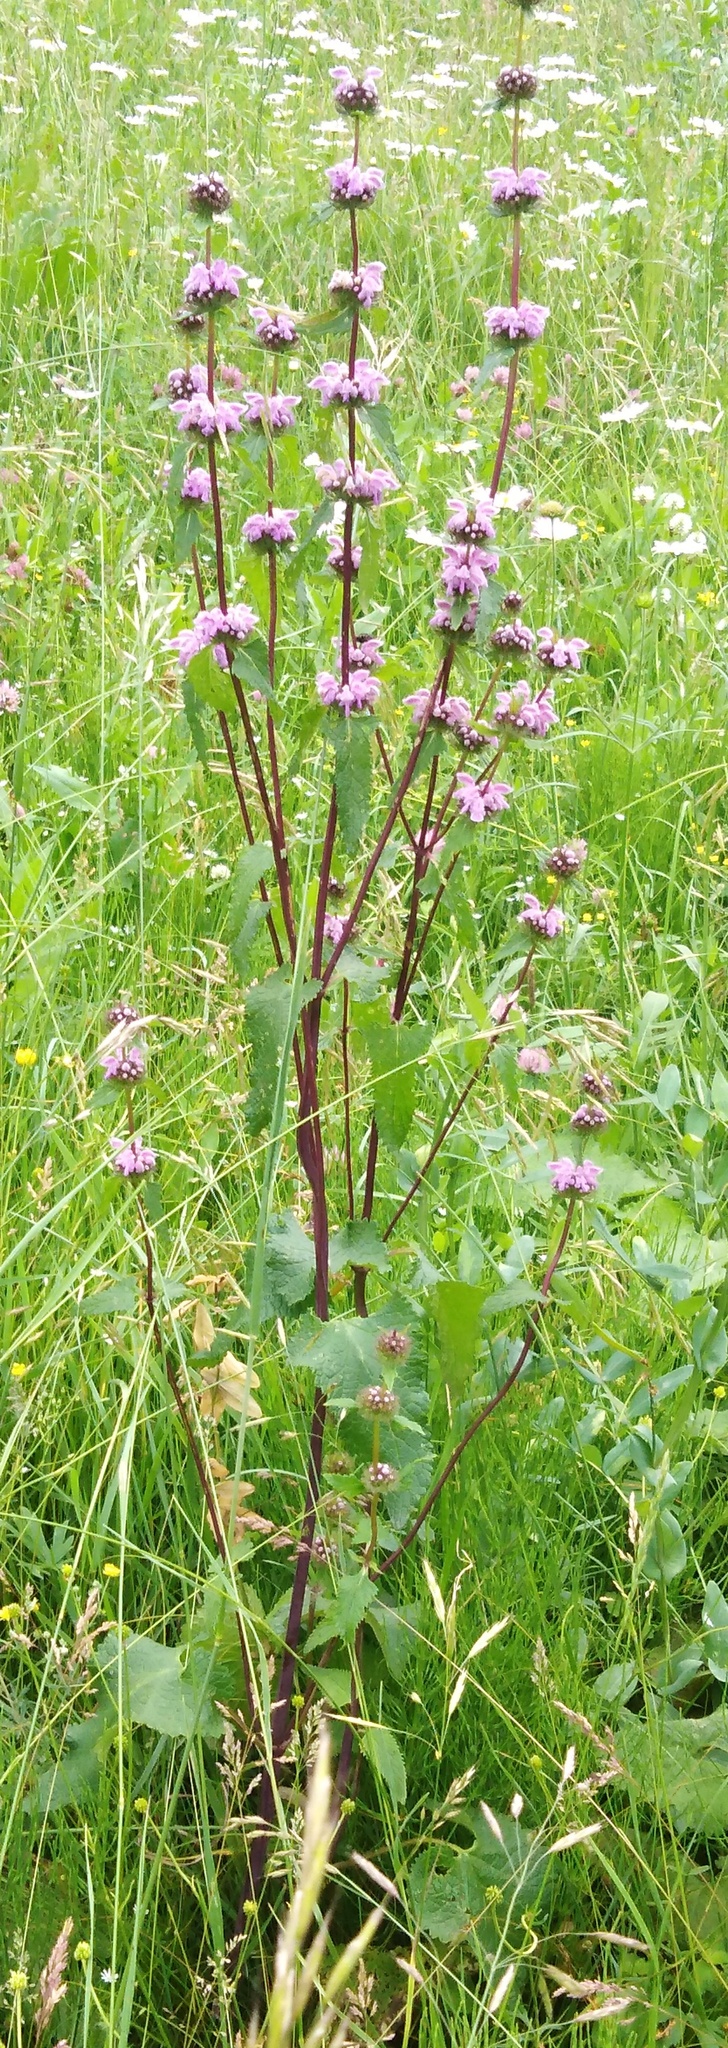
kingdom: Plantae
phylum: Tracheophyta
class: Magnoliopsida
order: Lamiales
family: Lamiaceae
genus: Phlomoides
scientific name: Phlomoides tuberosa
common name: Tuberous jerusalem sage
